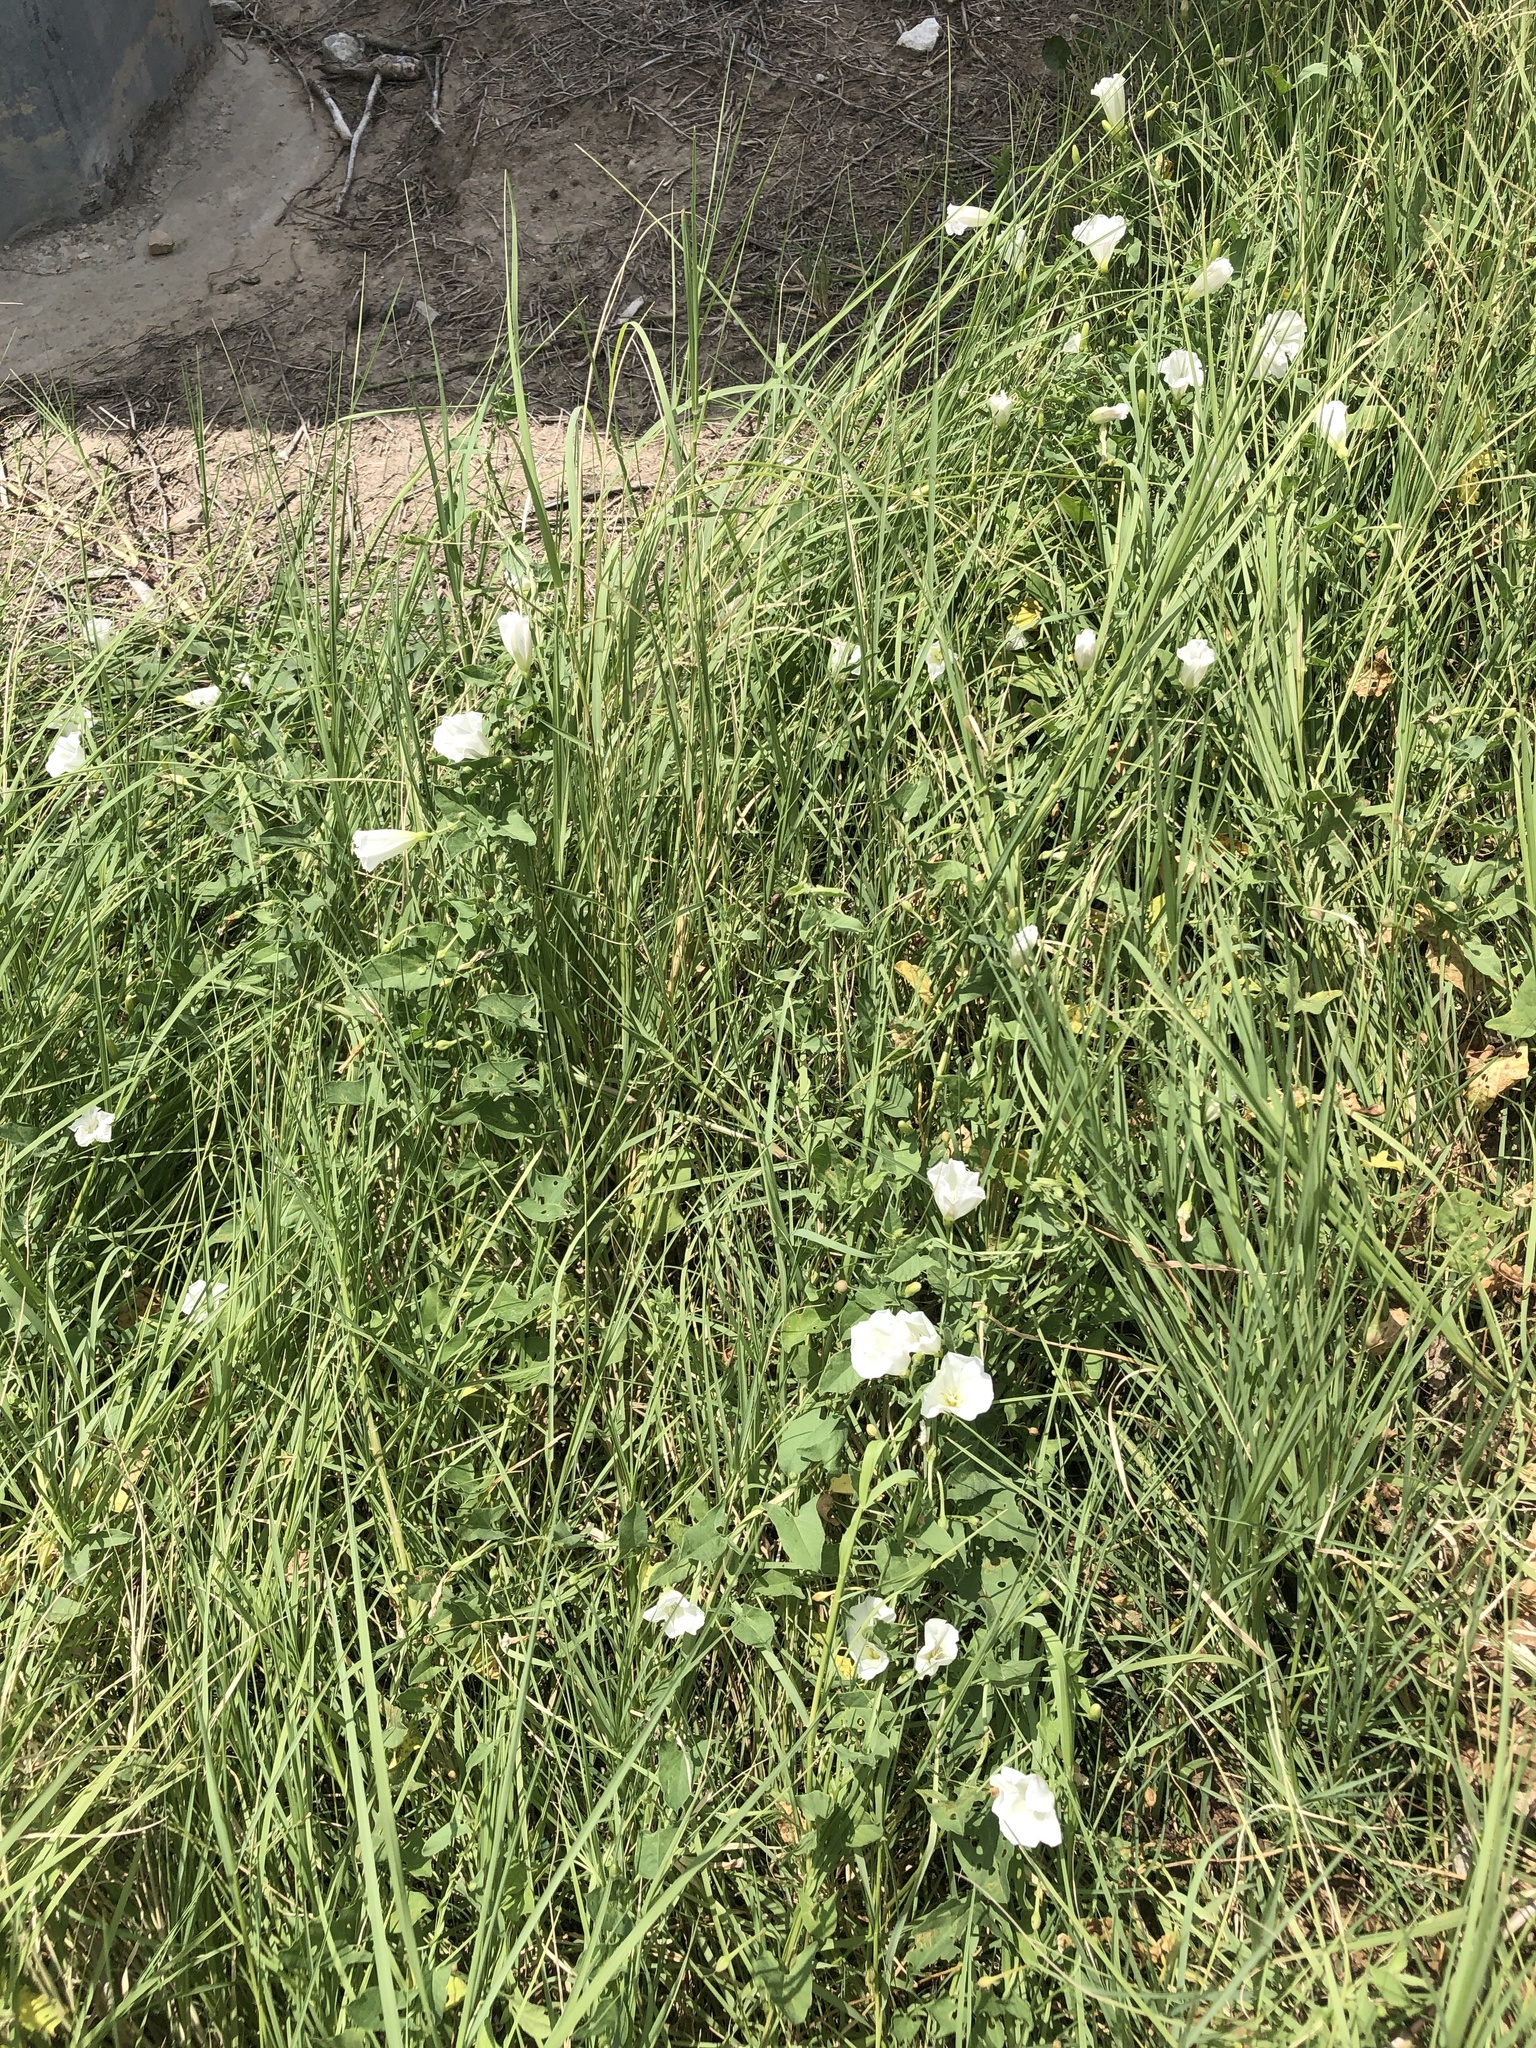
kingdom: Plantae
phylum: Tracheophyta
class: Magnoliopsida
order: Solanales
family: Convolvulaceae
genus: Convolvulus
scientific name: Convolvulus arvensis
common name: Field bindweed
